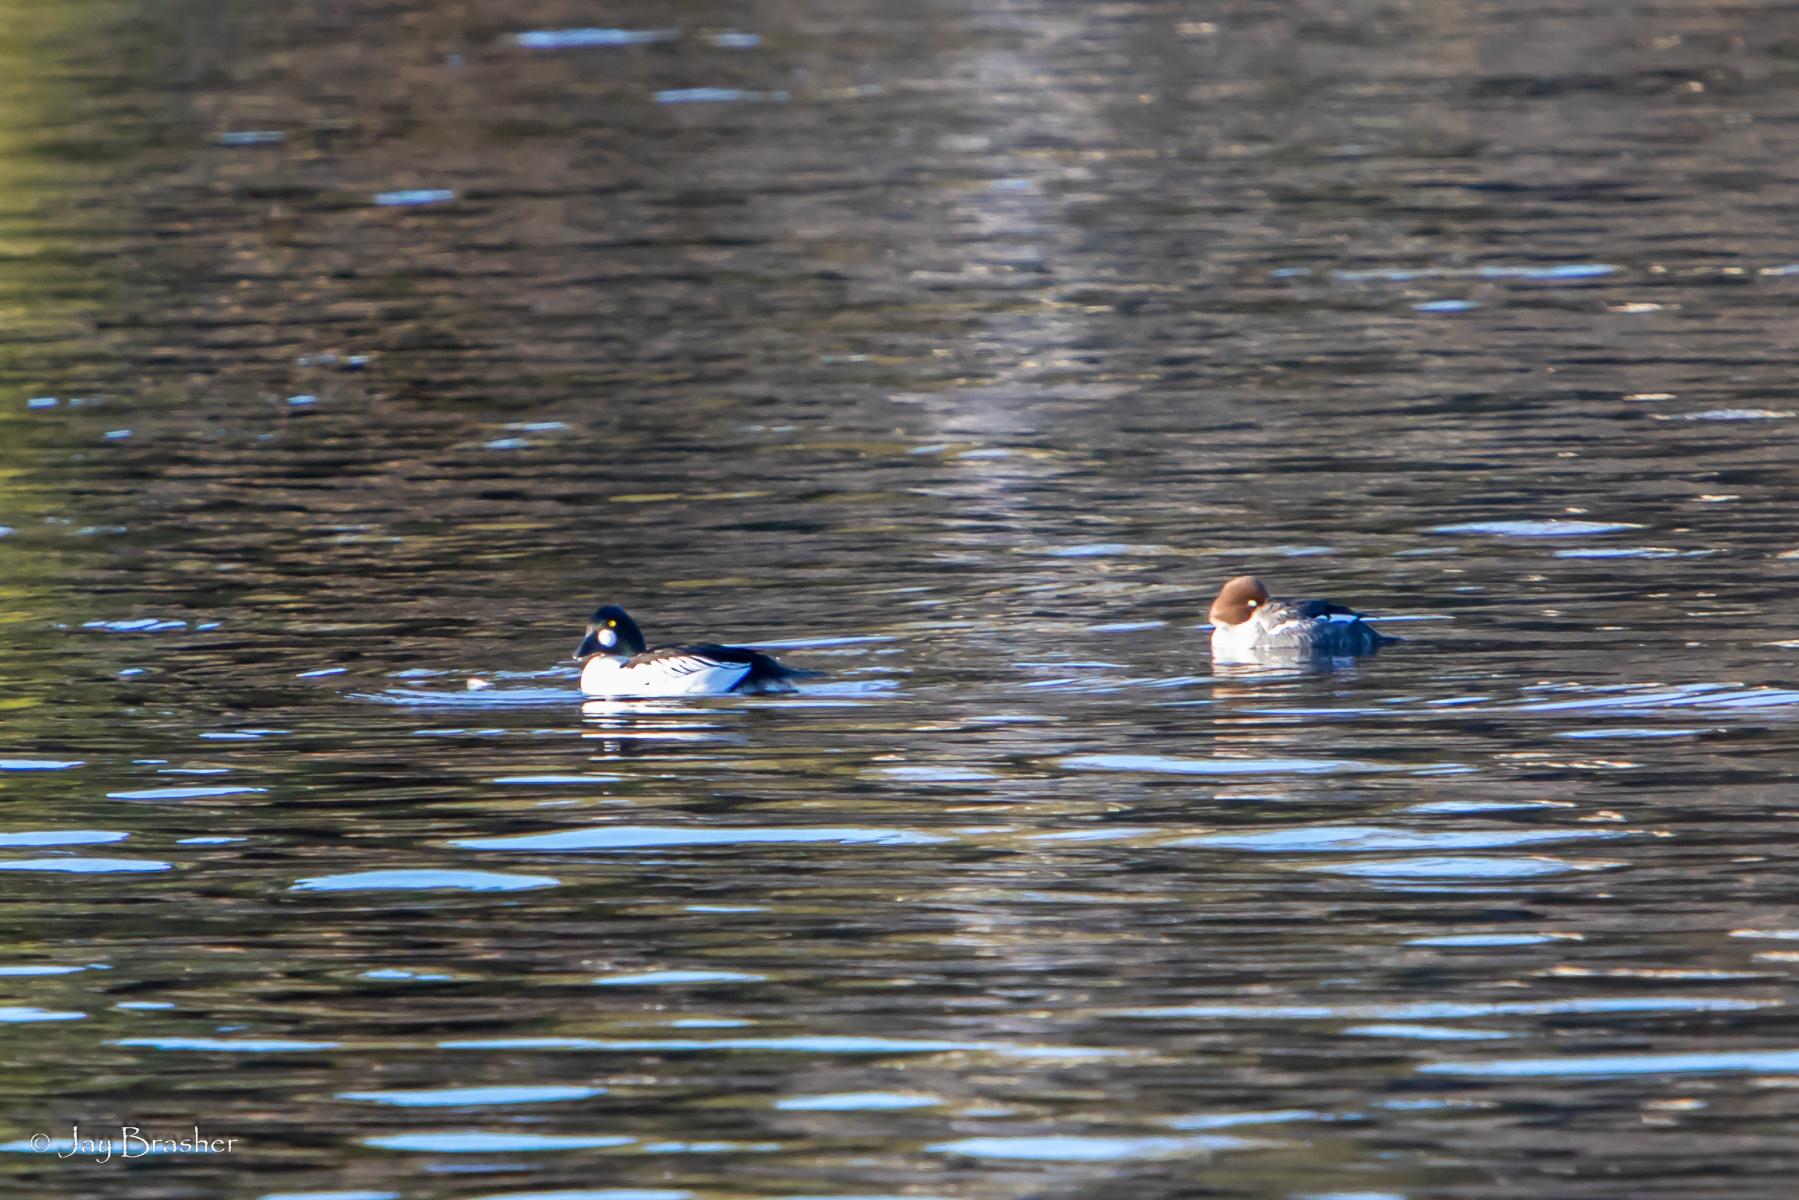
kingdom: Animalia
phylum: Chordata
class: Aves
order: Anseriformes
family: Anatidae
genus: Bucephala
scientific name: Bucephala clangula
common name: Common goldeneye
